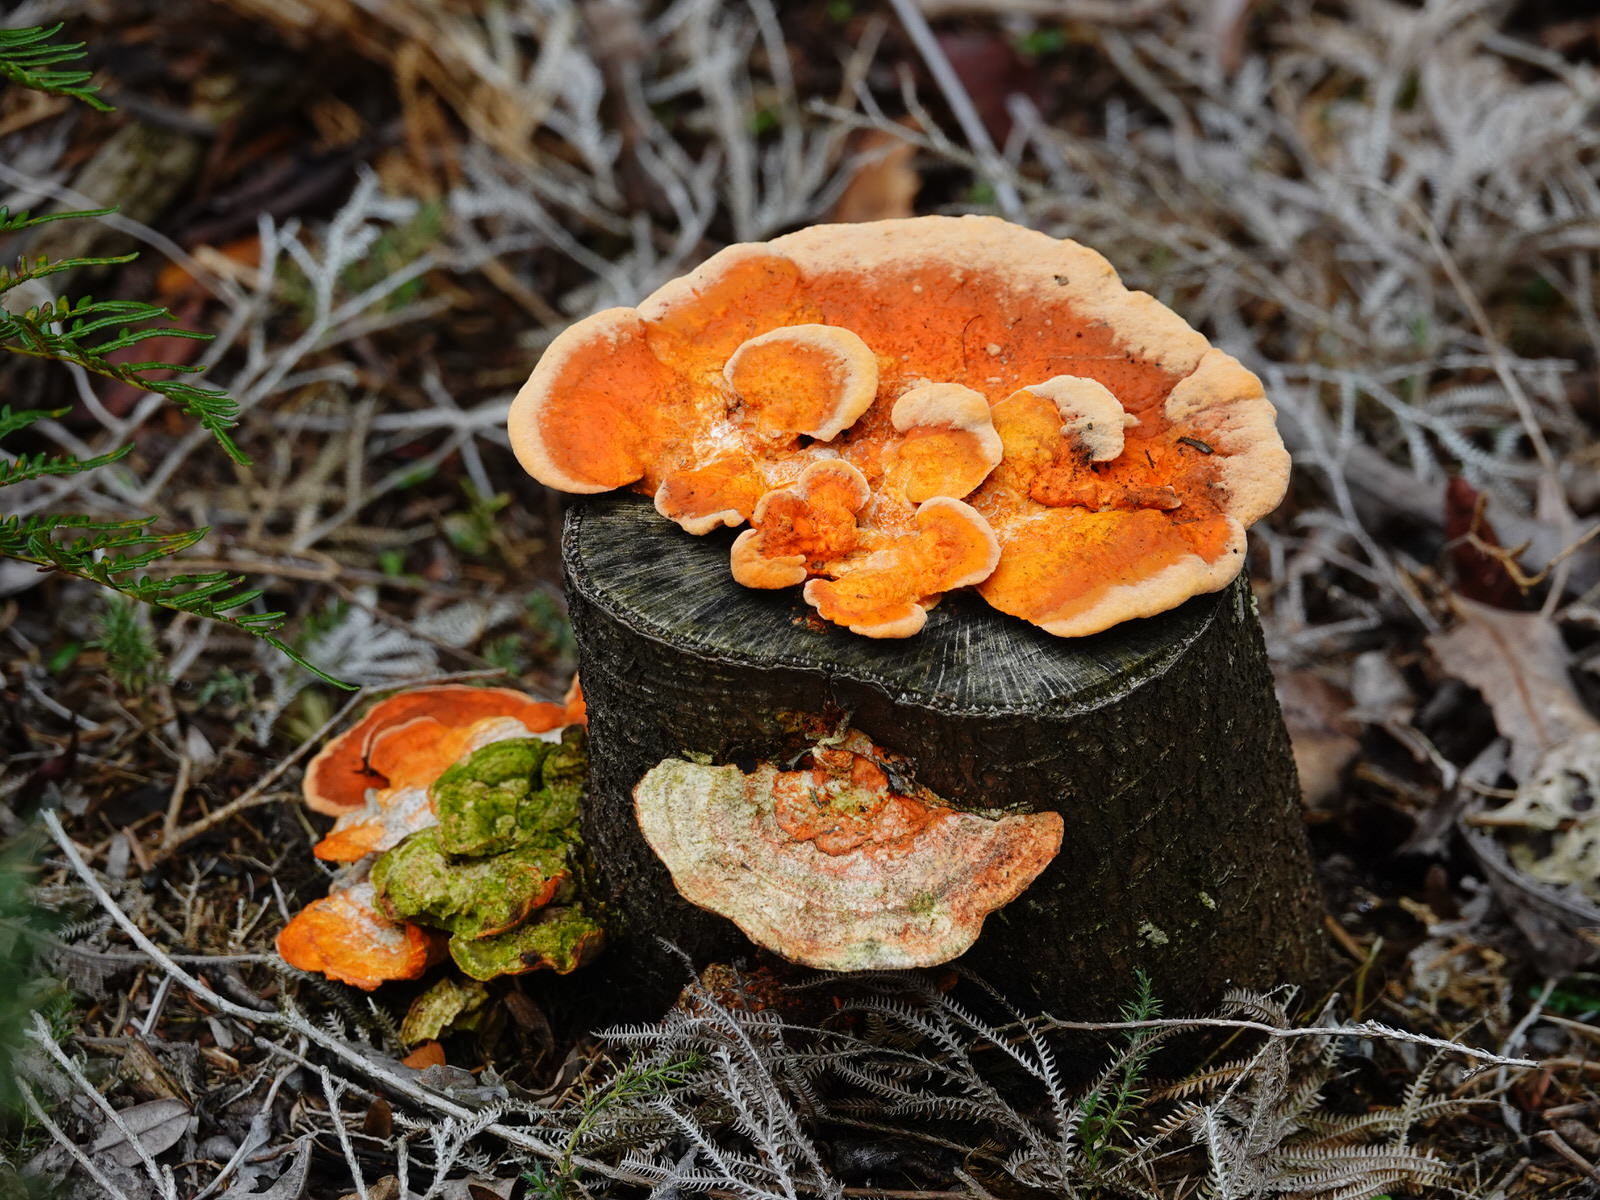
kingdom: Fungi
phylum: Basidiomycota
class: Agaricomycetes
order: Polyporales
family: Polyporaceae
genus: Trametes
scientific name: Trametes coccinea
